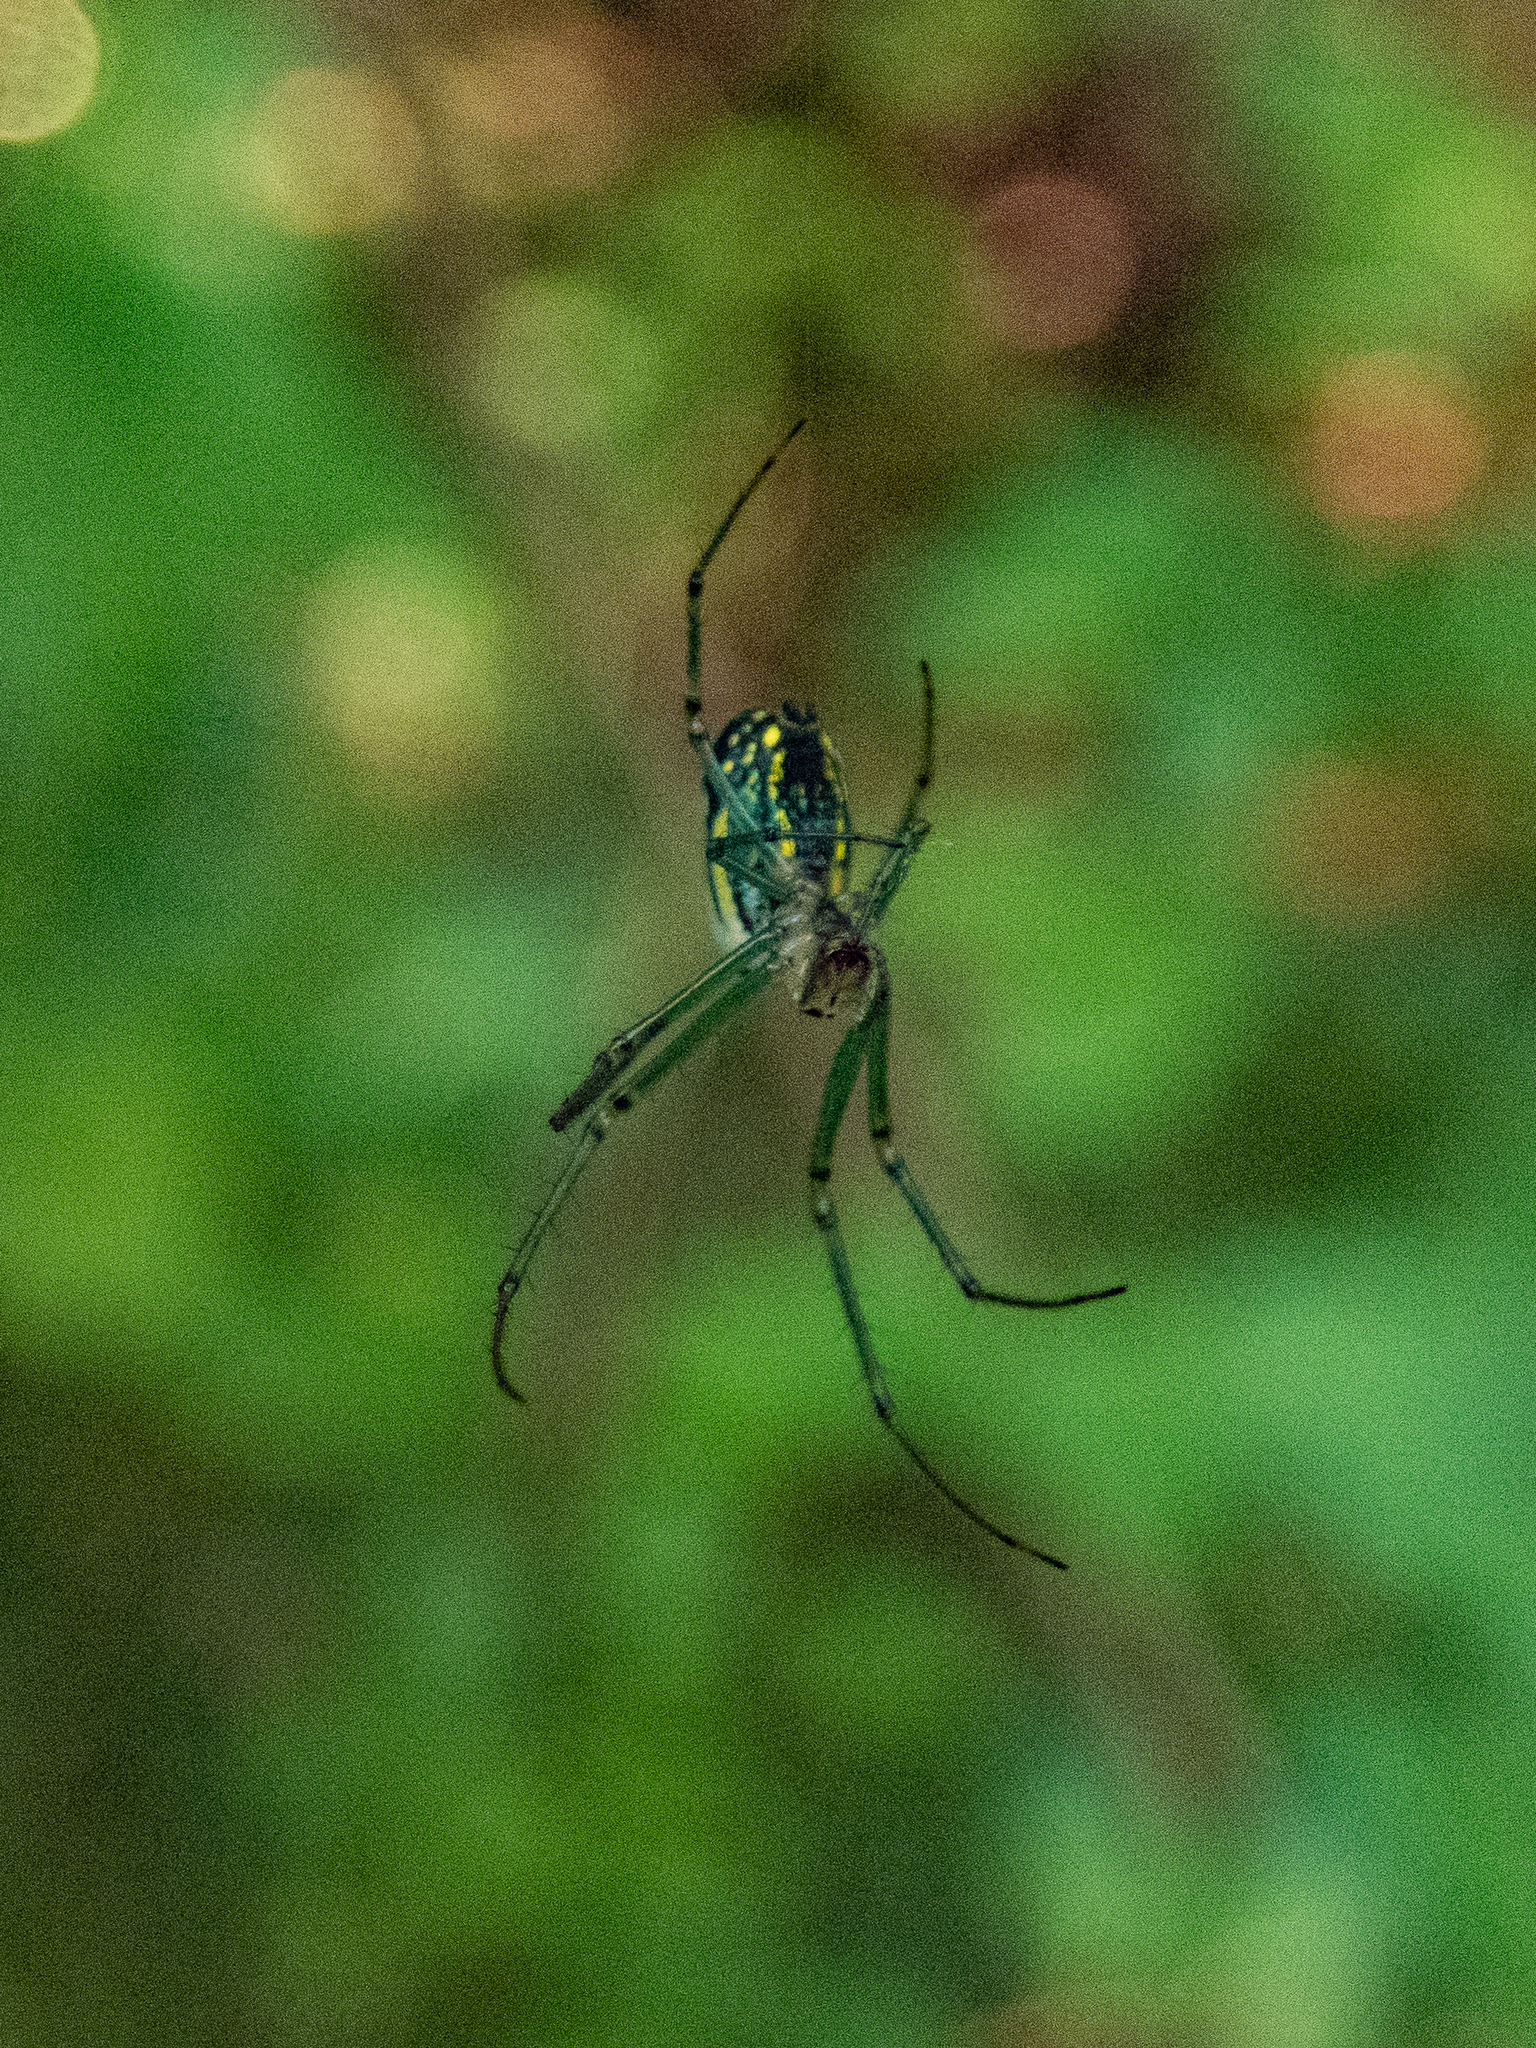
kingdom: Animalia
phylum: Arthropoda
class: Arachnida
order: Araneae
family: Tetragnathidae
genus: Leucauge
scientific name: Leucauge venusta
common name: Longjawed orb weavers
